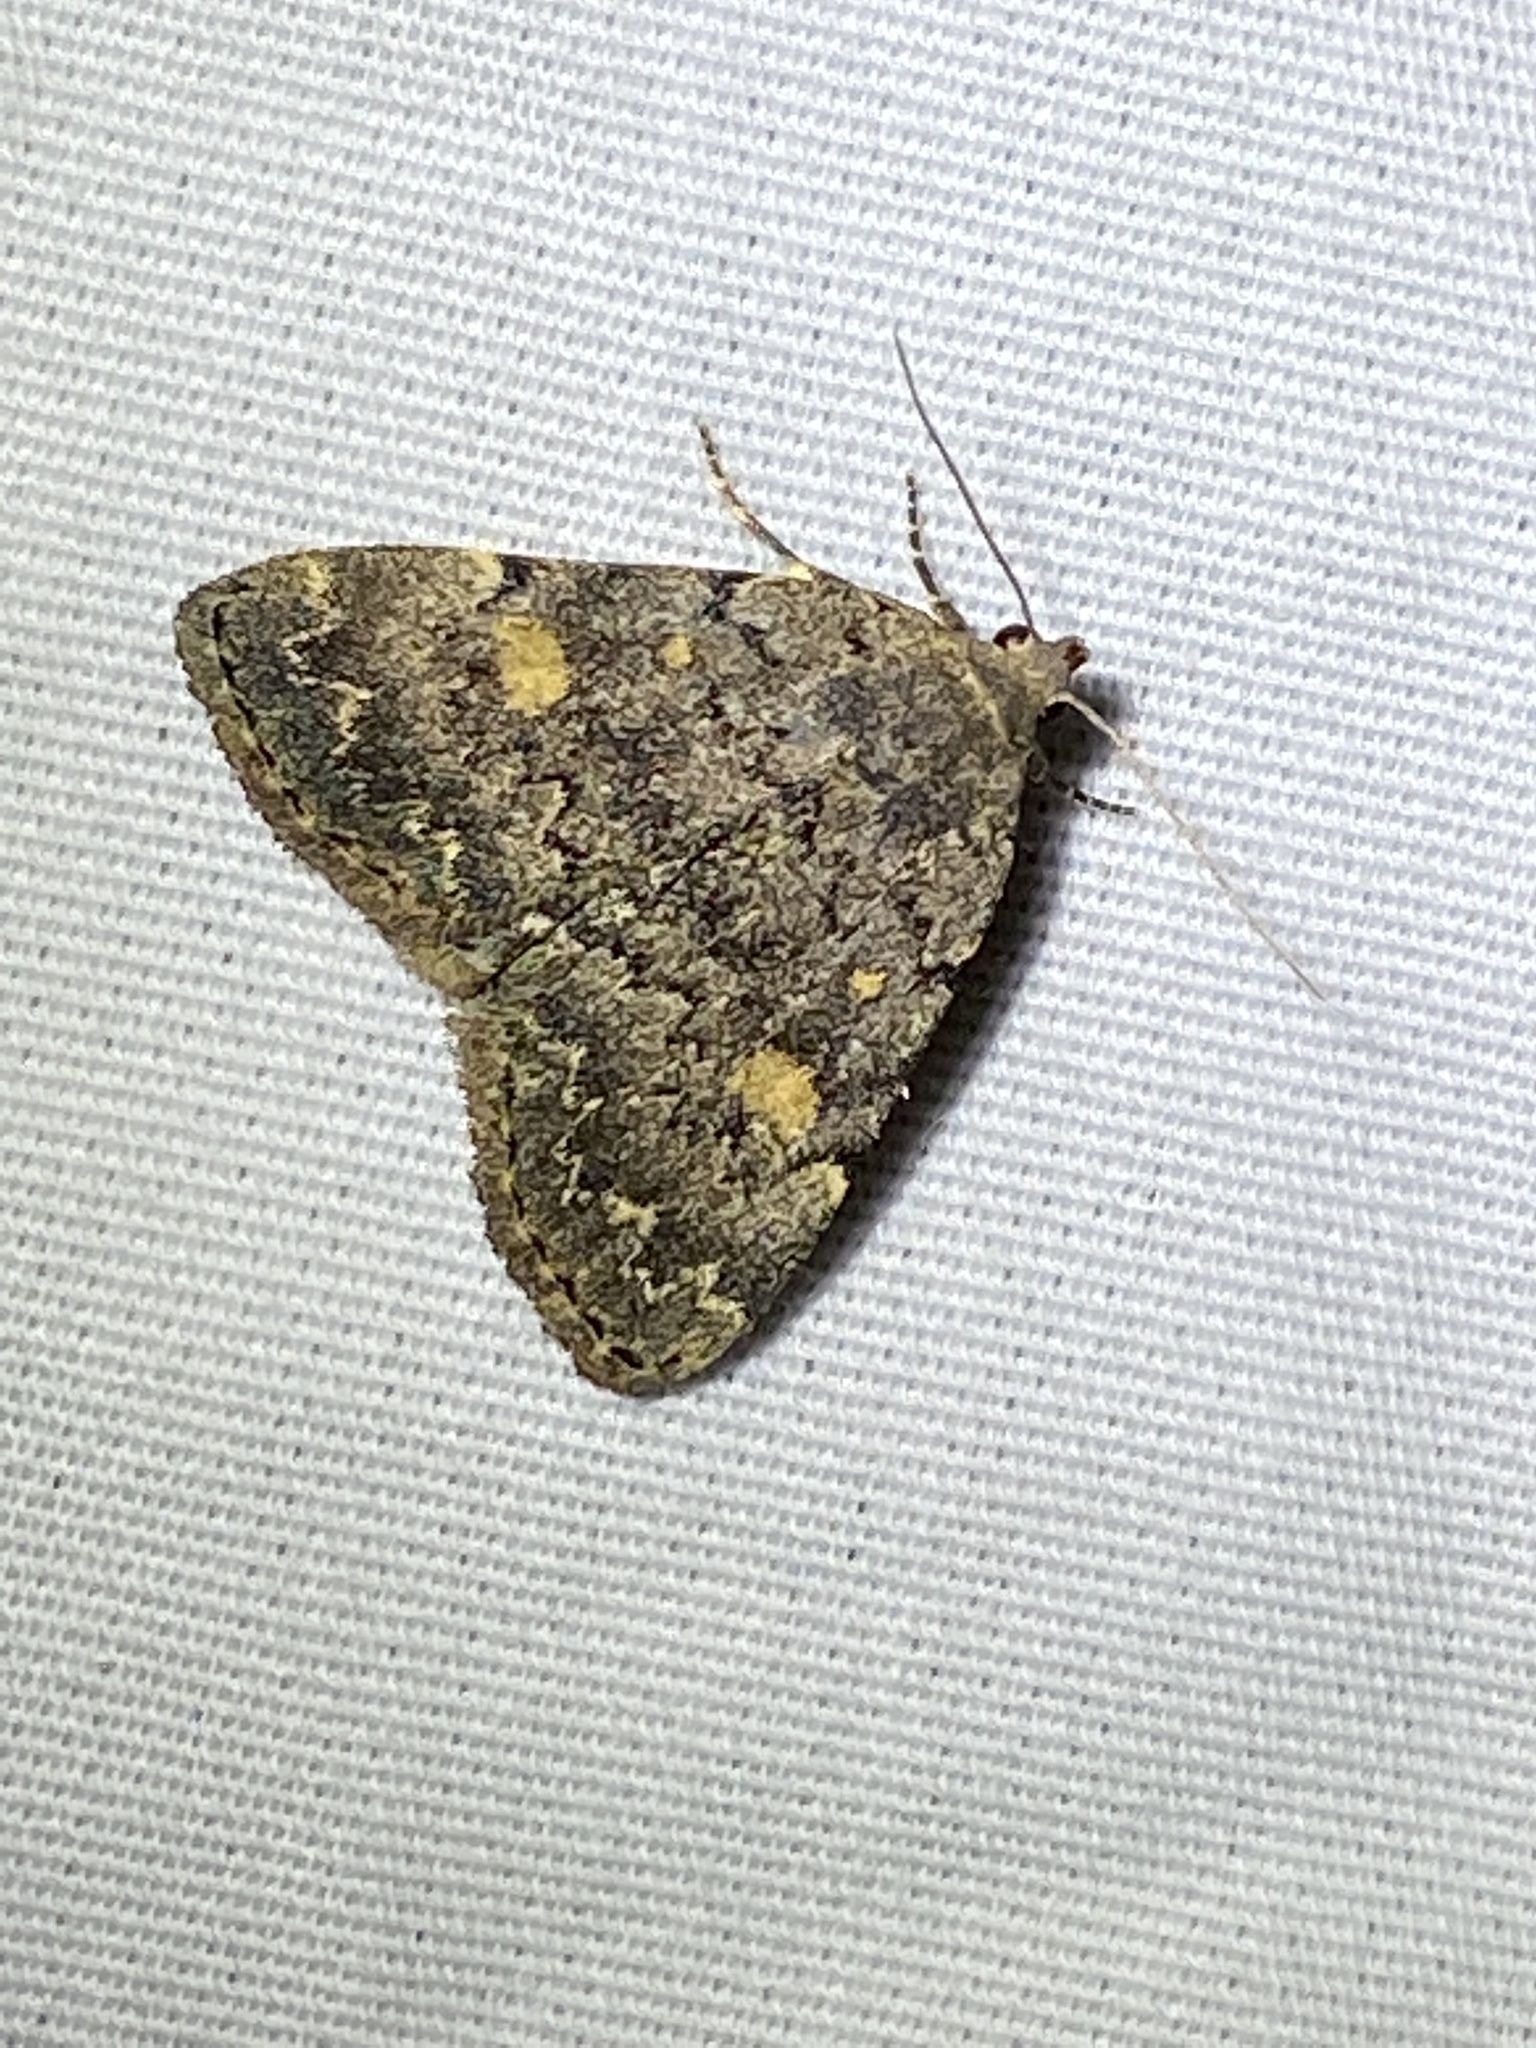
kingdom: Animalia
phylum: Arthropoda
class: Insecta
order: Lepidoptera
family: Erebidae
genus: Idia
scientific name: Idia aemula
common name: Common idia moth
